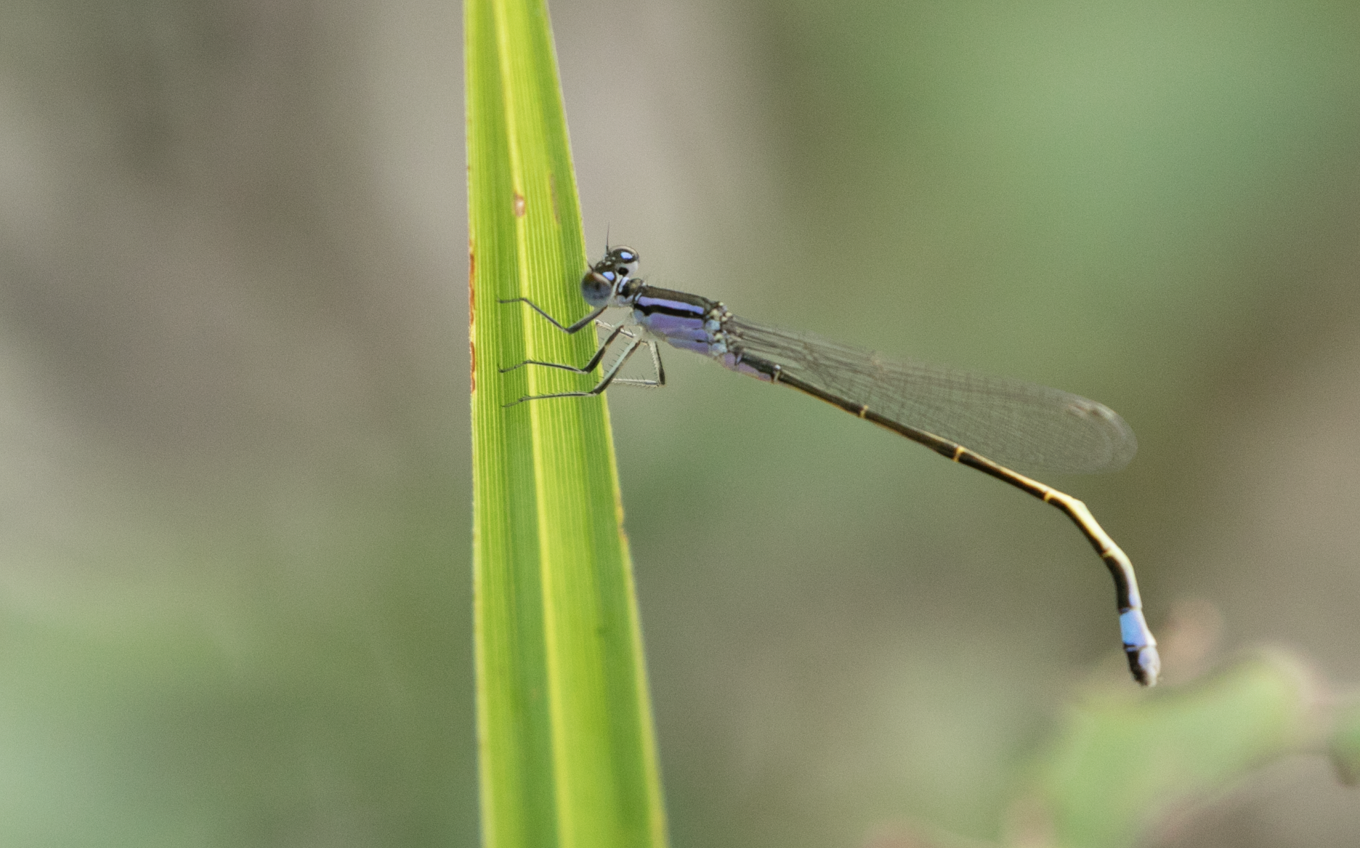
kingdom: Animalia
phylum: Arthropoda
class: Insecta
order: Odonata
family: Coenagrionidae
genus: Ischnura
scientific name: Ischnura elegans
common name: Blue-tailed damselfly
